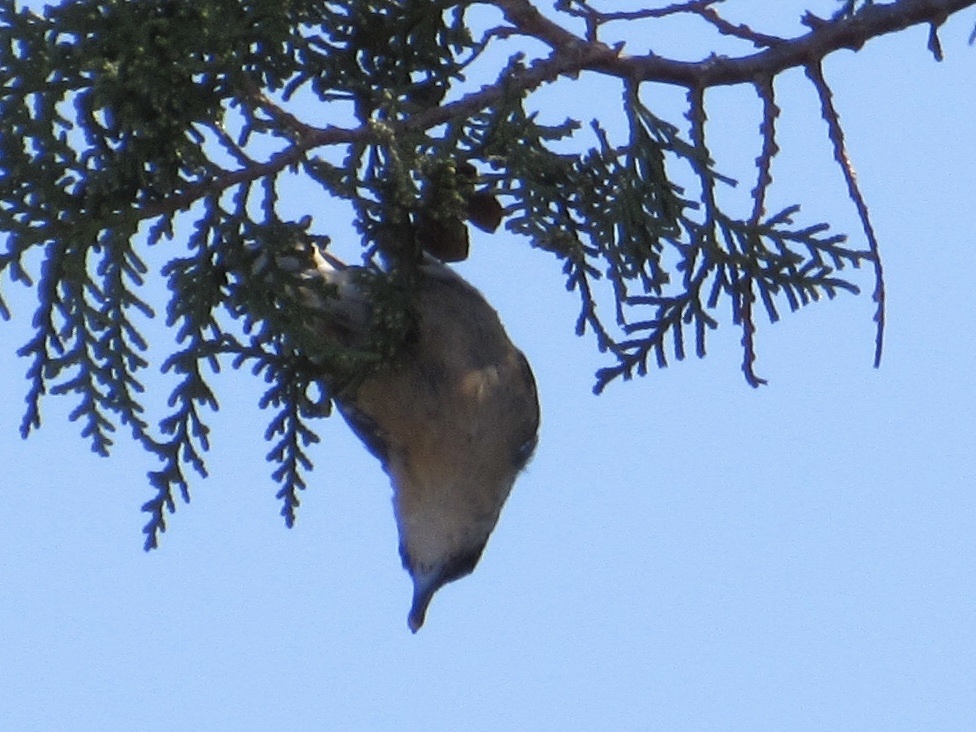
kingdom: Animalia
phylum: Chordata
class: Aves
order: Passeriformes
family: Sittidae
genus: Sitta
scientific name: Sitta canadensis
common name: Red-breasted nuthatch
